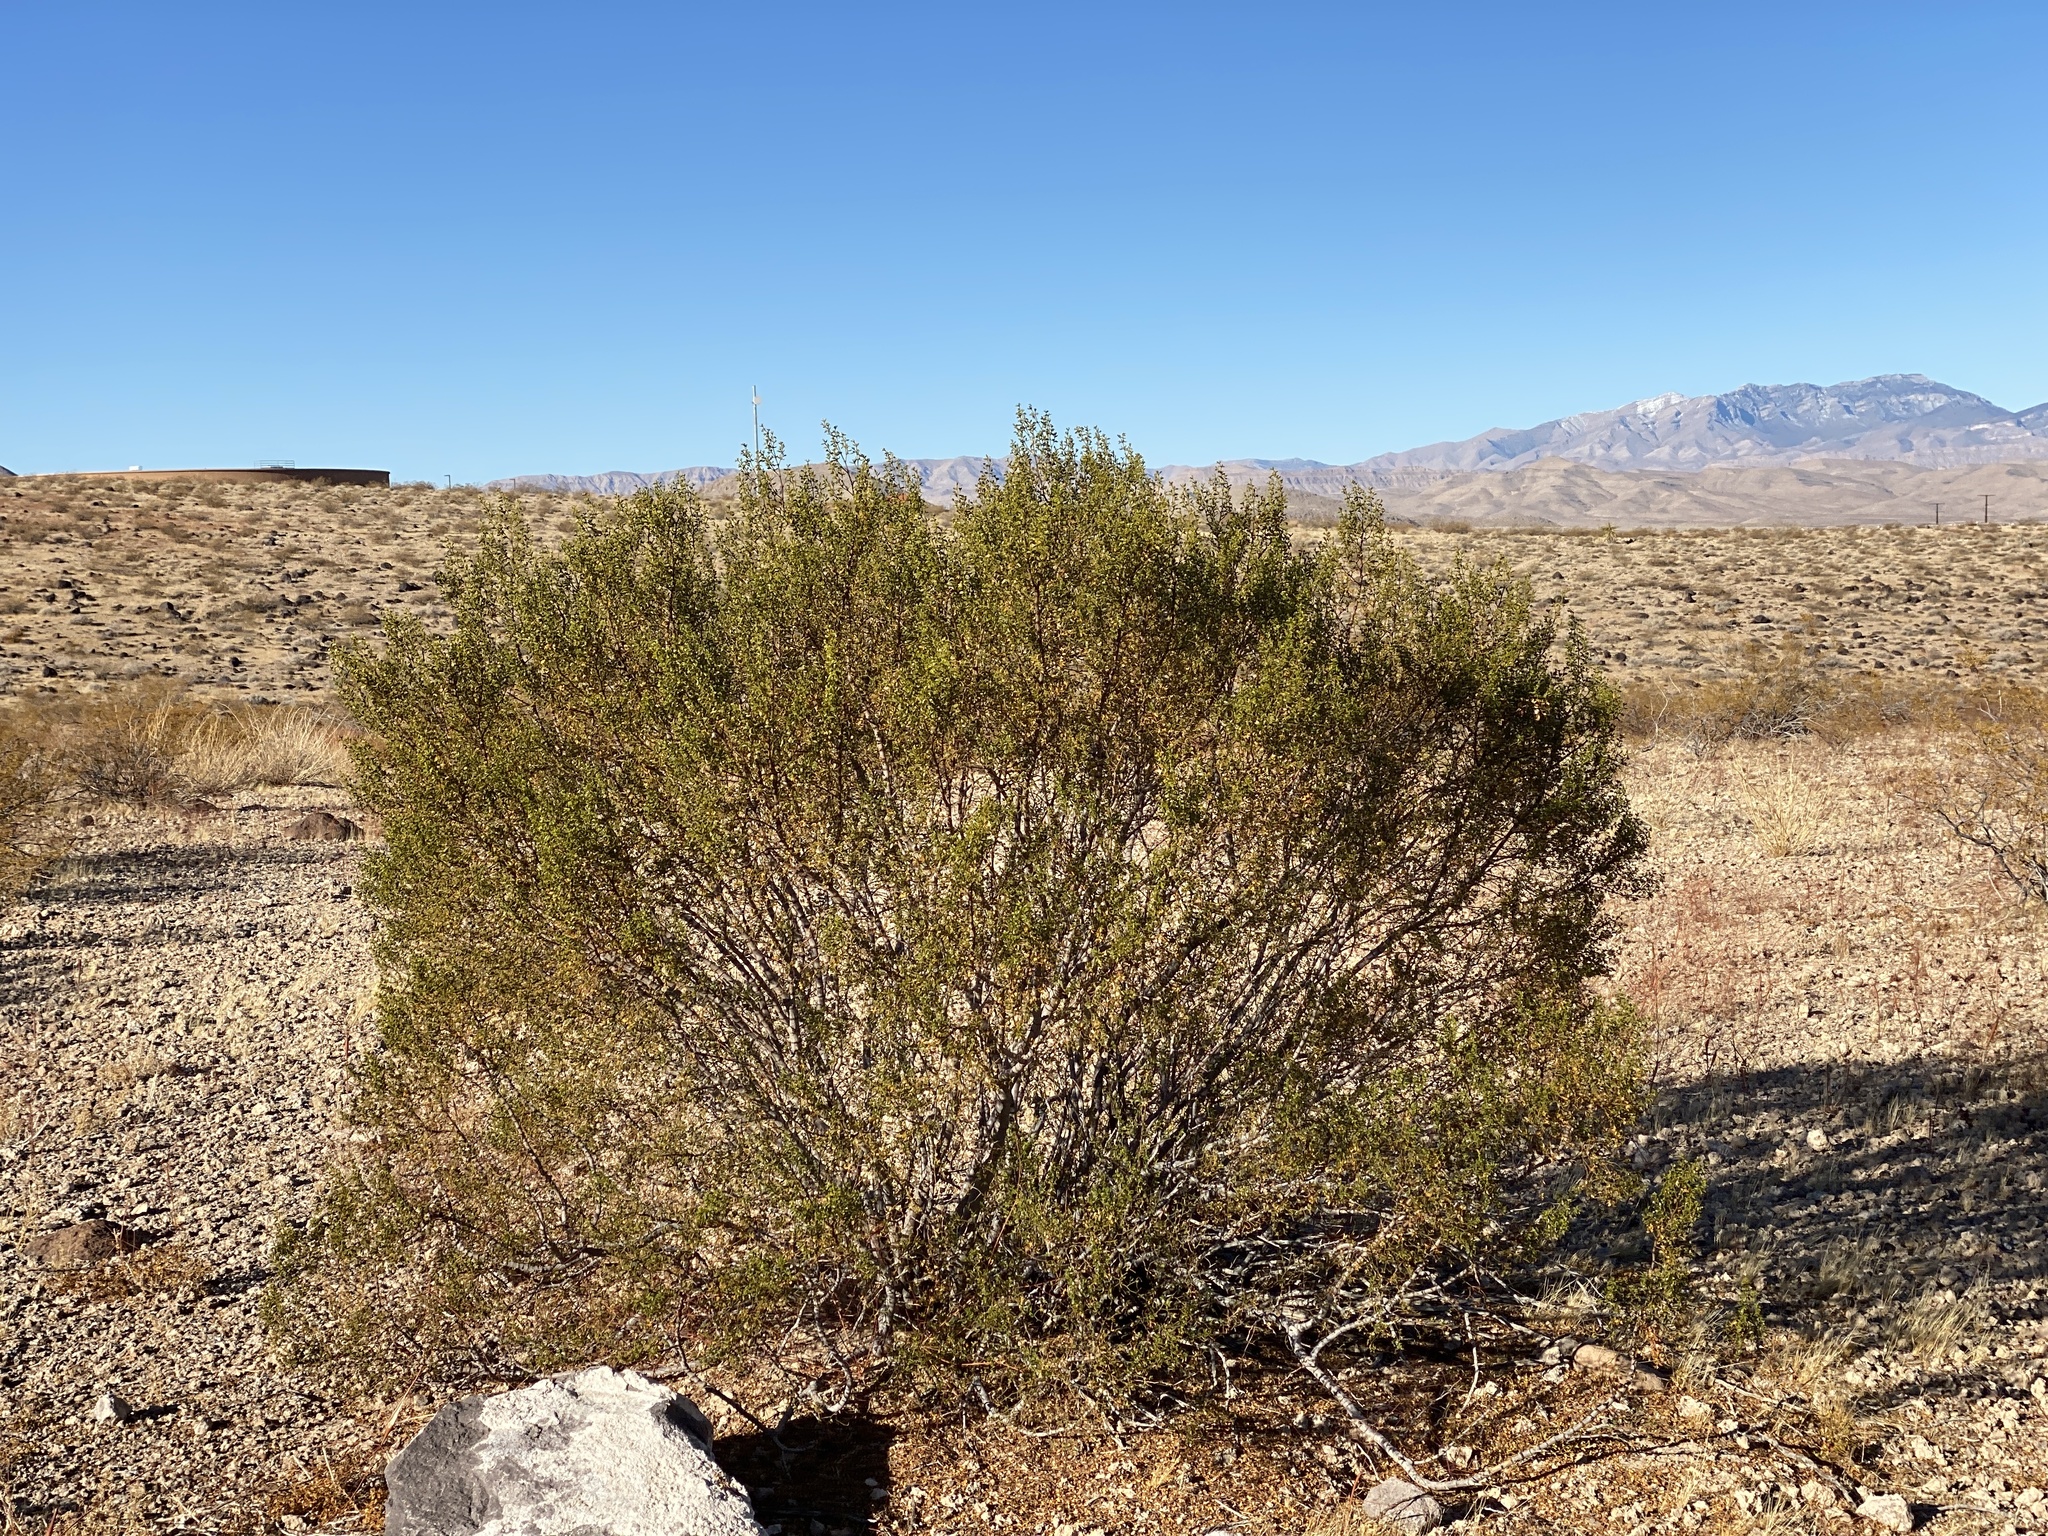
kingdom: Plantae
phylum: Tracheophyta
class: Magnoliopsida
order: Zygophyllales
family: Zygophyllaceae
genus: Larrea
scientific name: Larrea tridentata
